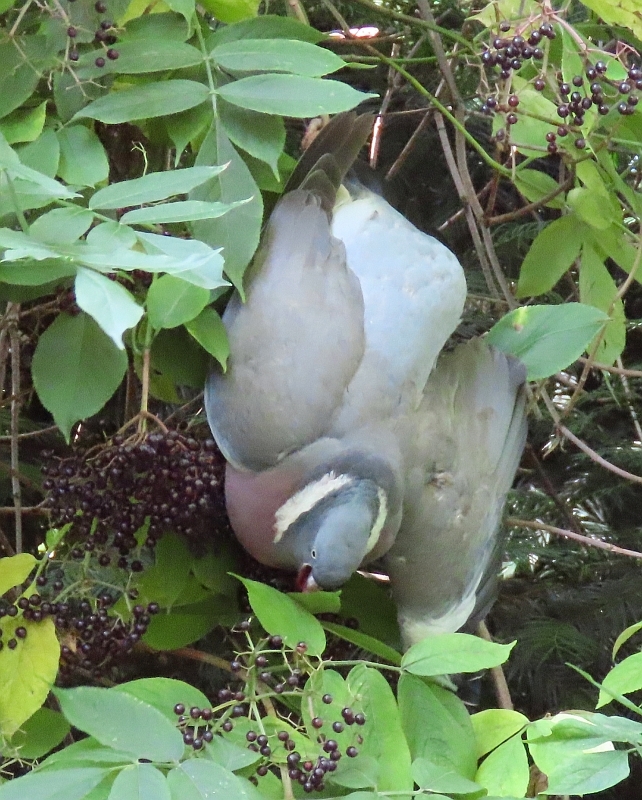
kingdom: Animalia
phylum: Chordata
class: Aves
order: Columbiformes
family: Columbidae
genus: Columba
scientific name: Columba palumbus
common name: Common wood pigeon
